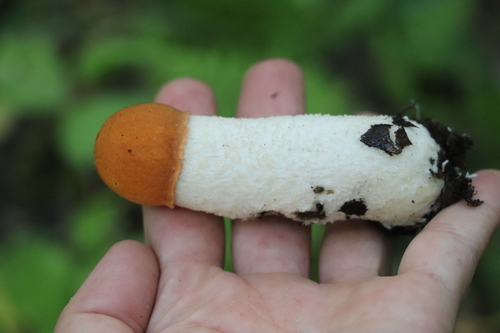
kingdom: Fungi
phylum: Basidiomycota
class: Agaricomycetes
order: Boletales
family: Boletaceae
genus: Leccinum
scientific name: Leccinum albostipitatum
